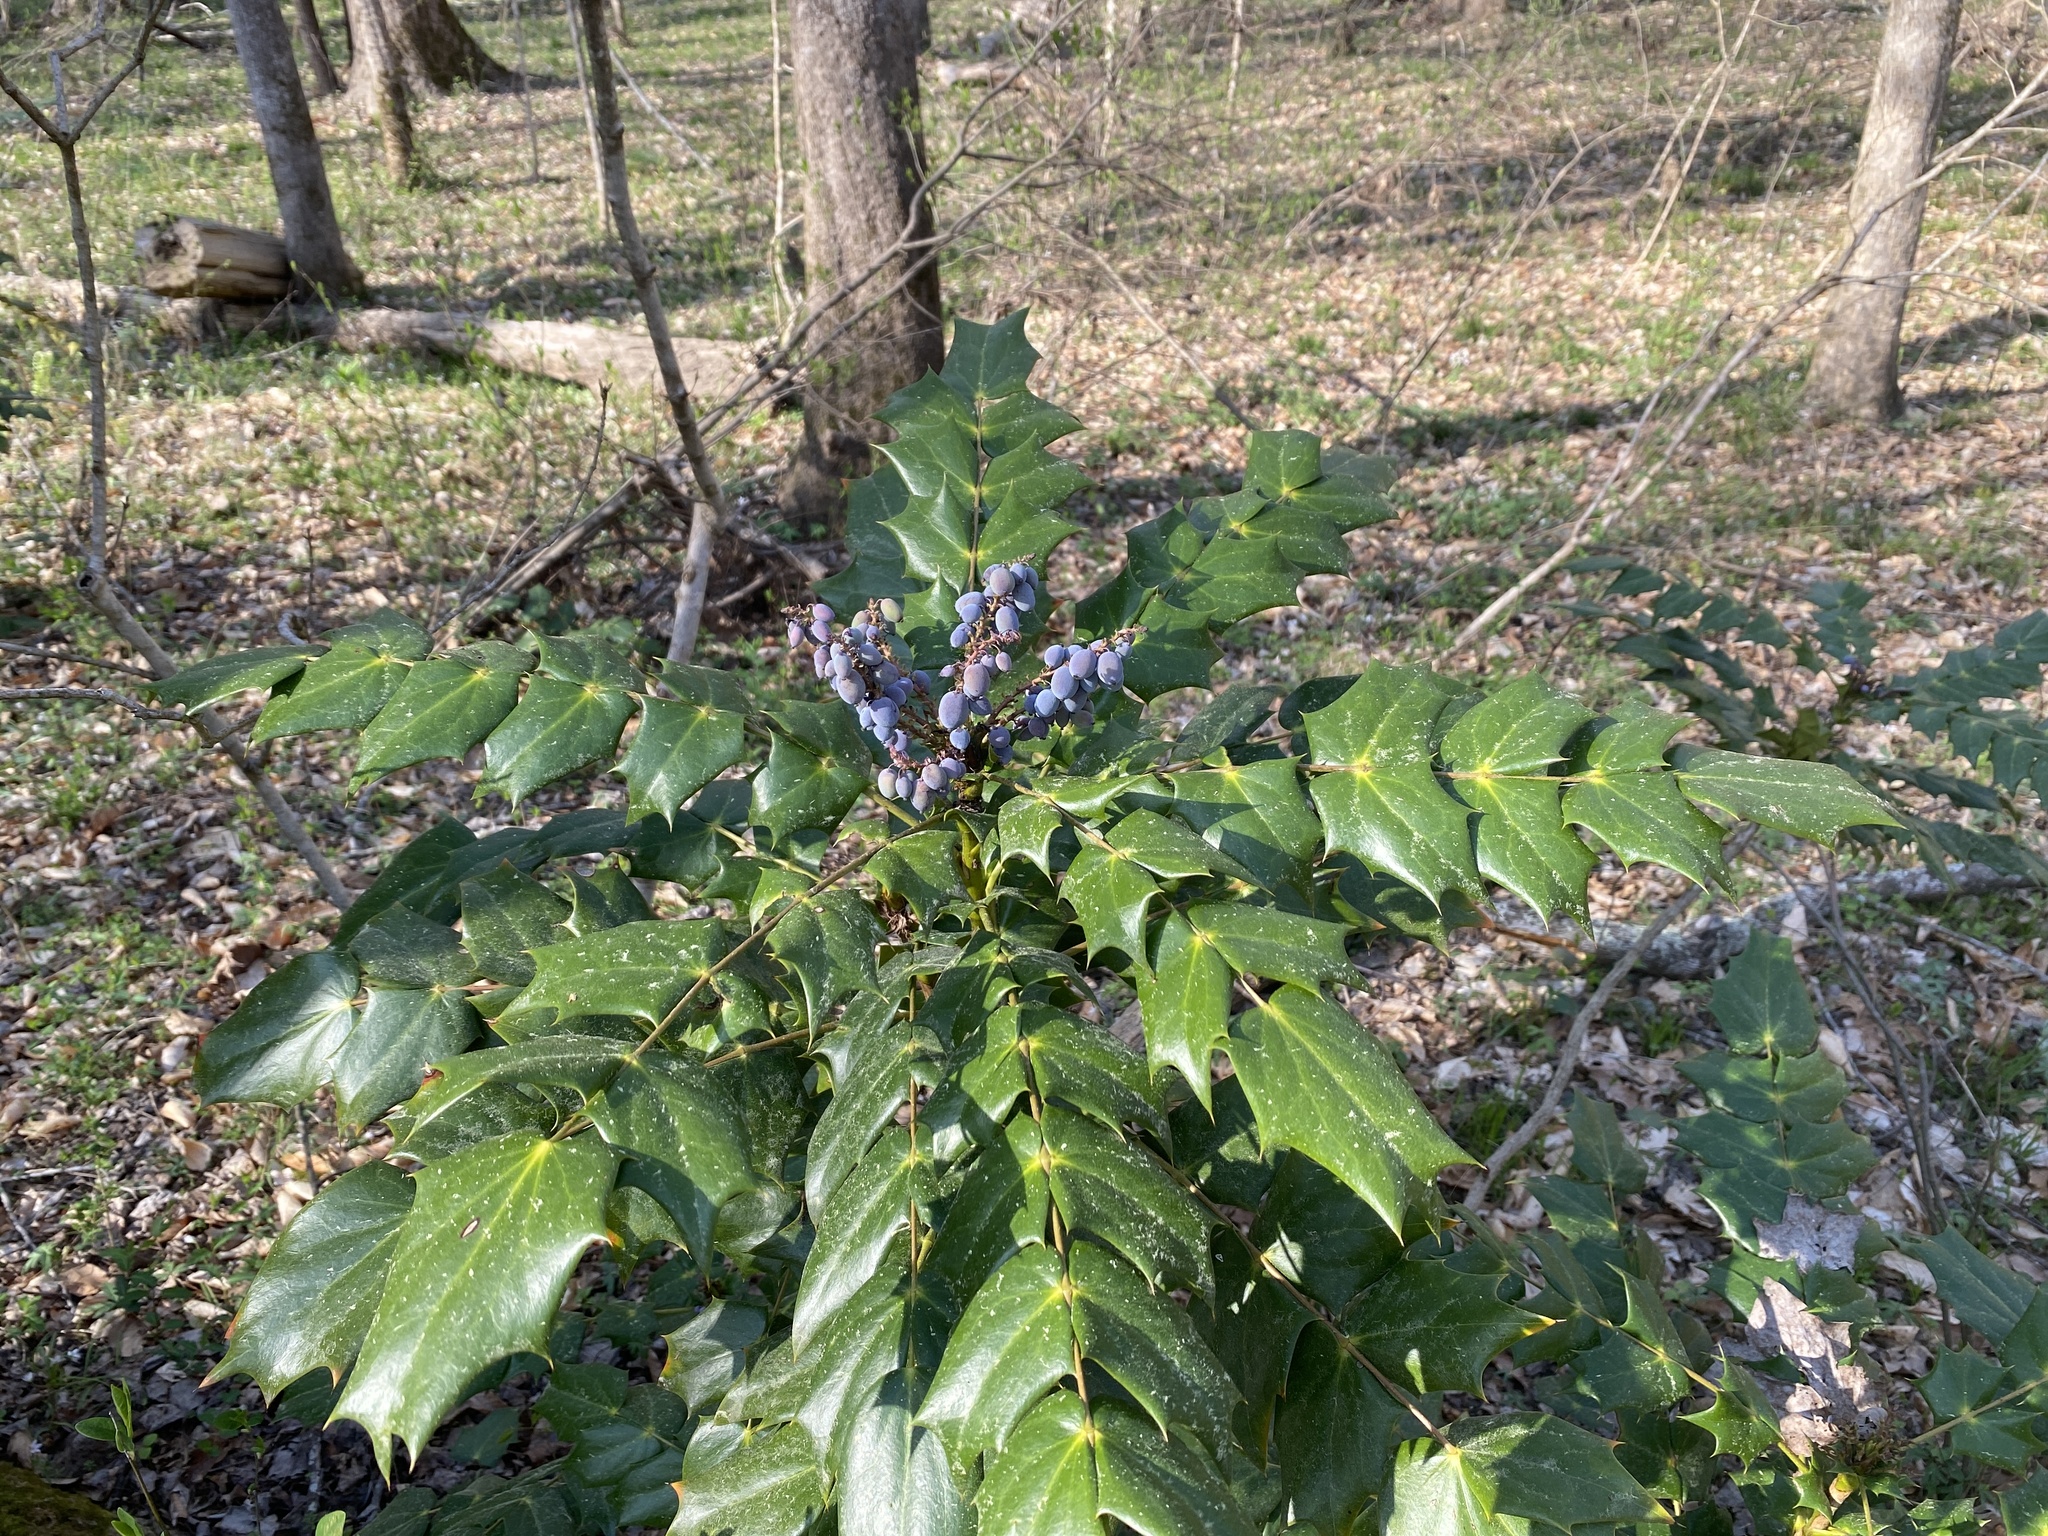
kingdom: Plantae
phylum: Tracheophyta
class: Magnoliopsida
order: Ranunculales
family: Berberidaceae
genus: Mahonia
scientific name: Mahonia bealei
